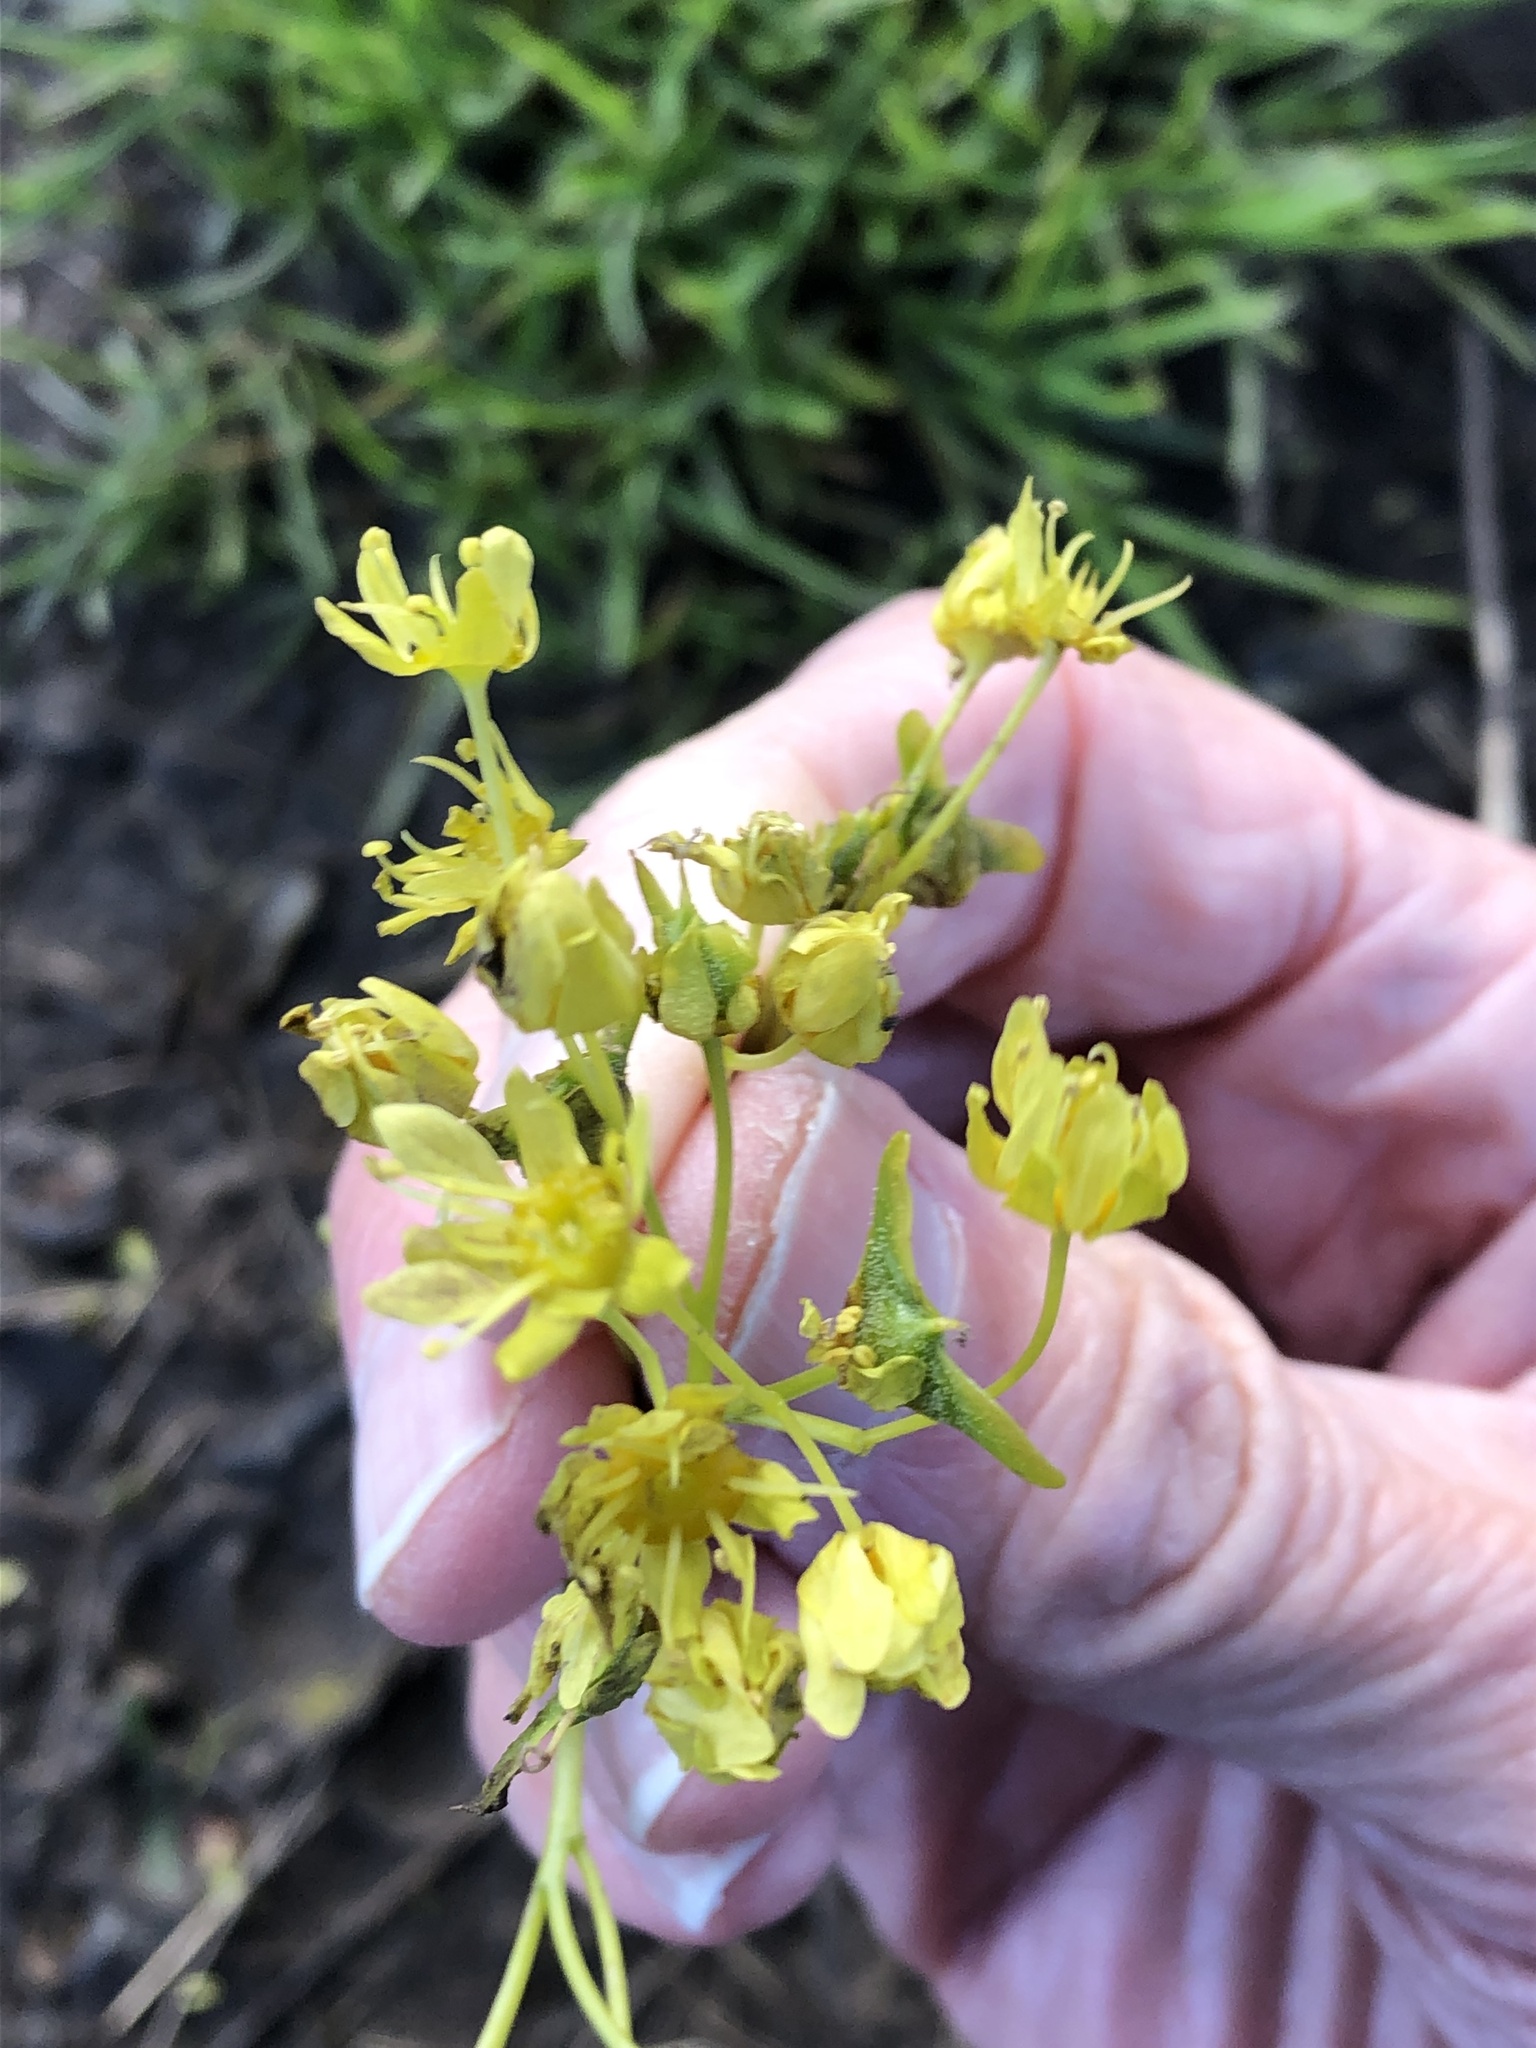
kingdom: Plantae
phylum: Tracheophyta
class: Magnoliopsida
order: Sapindales
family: Sapindaceae
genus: Acer
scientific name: Acer platanoides
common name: Norway maple
